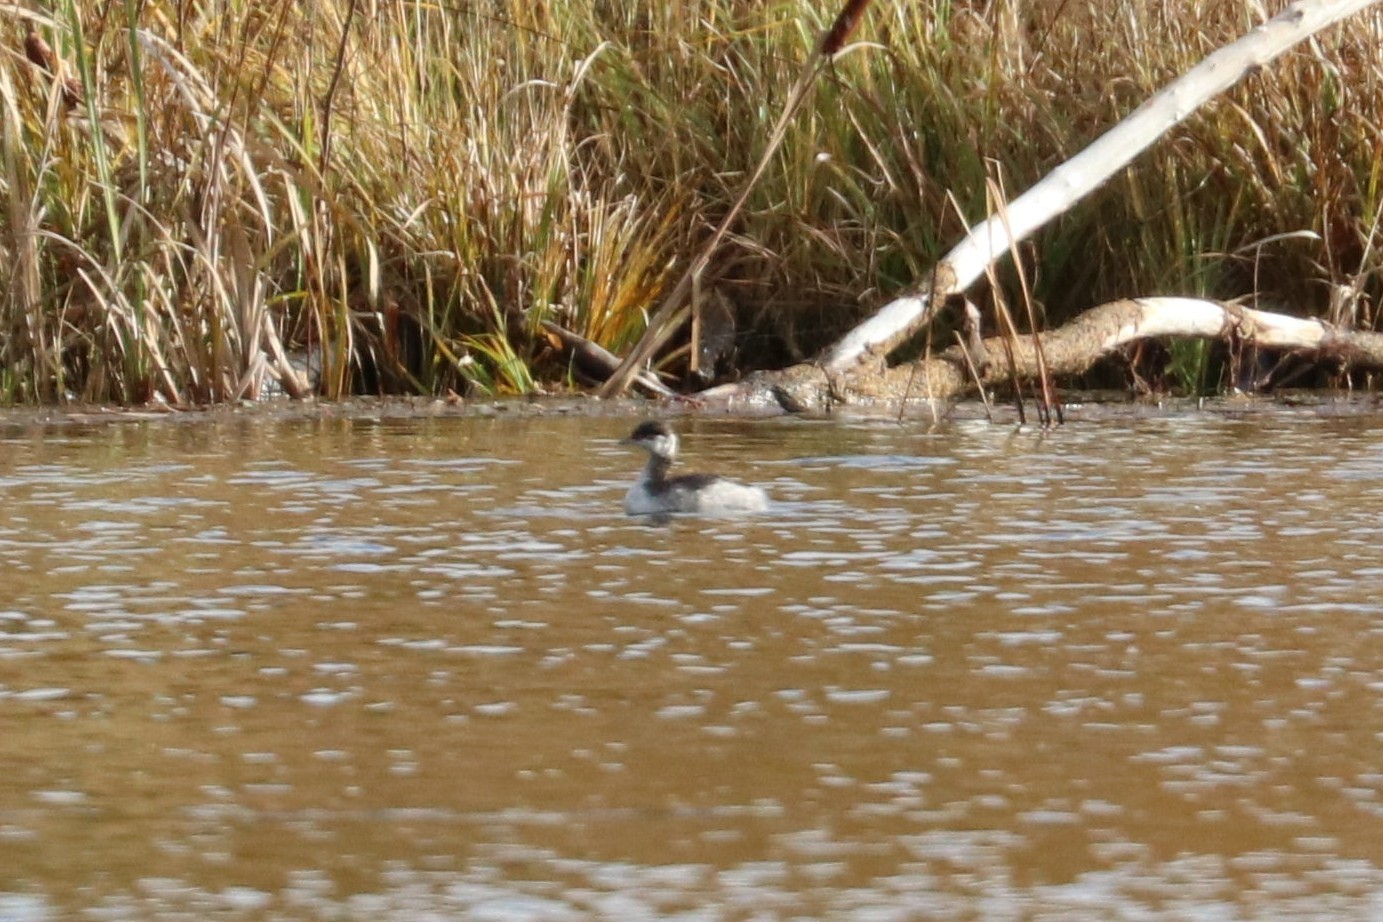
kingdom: Animalia
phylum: Chordata
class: Aves
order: Podicipediformes
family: Podicipedidae
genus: Podiceps
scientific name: Podiceps auritus
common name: Horned grebe
